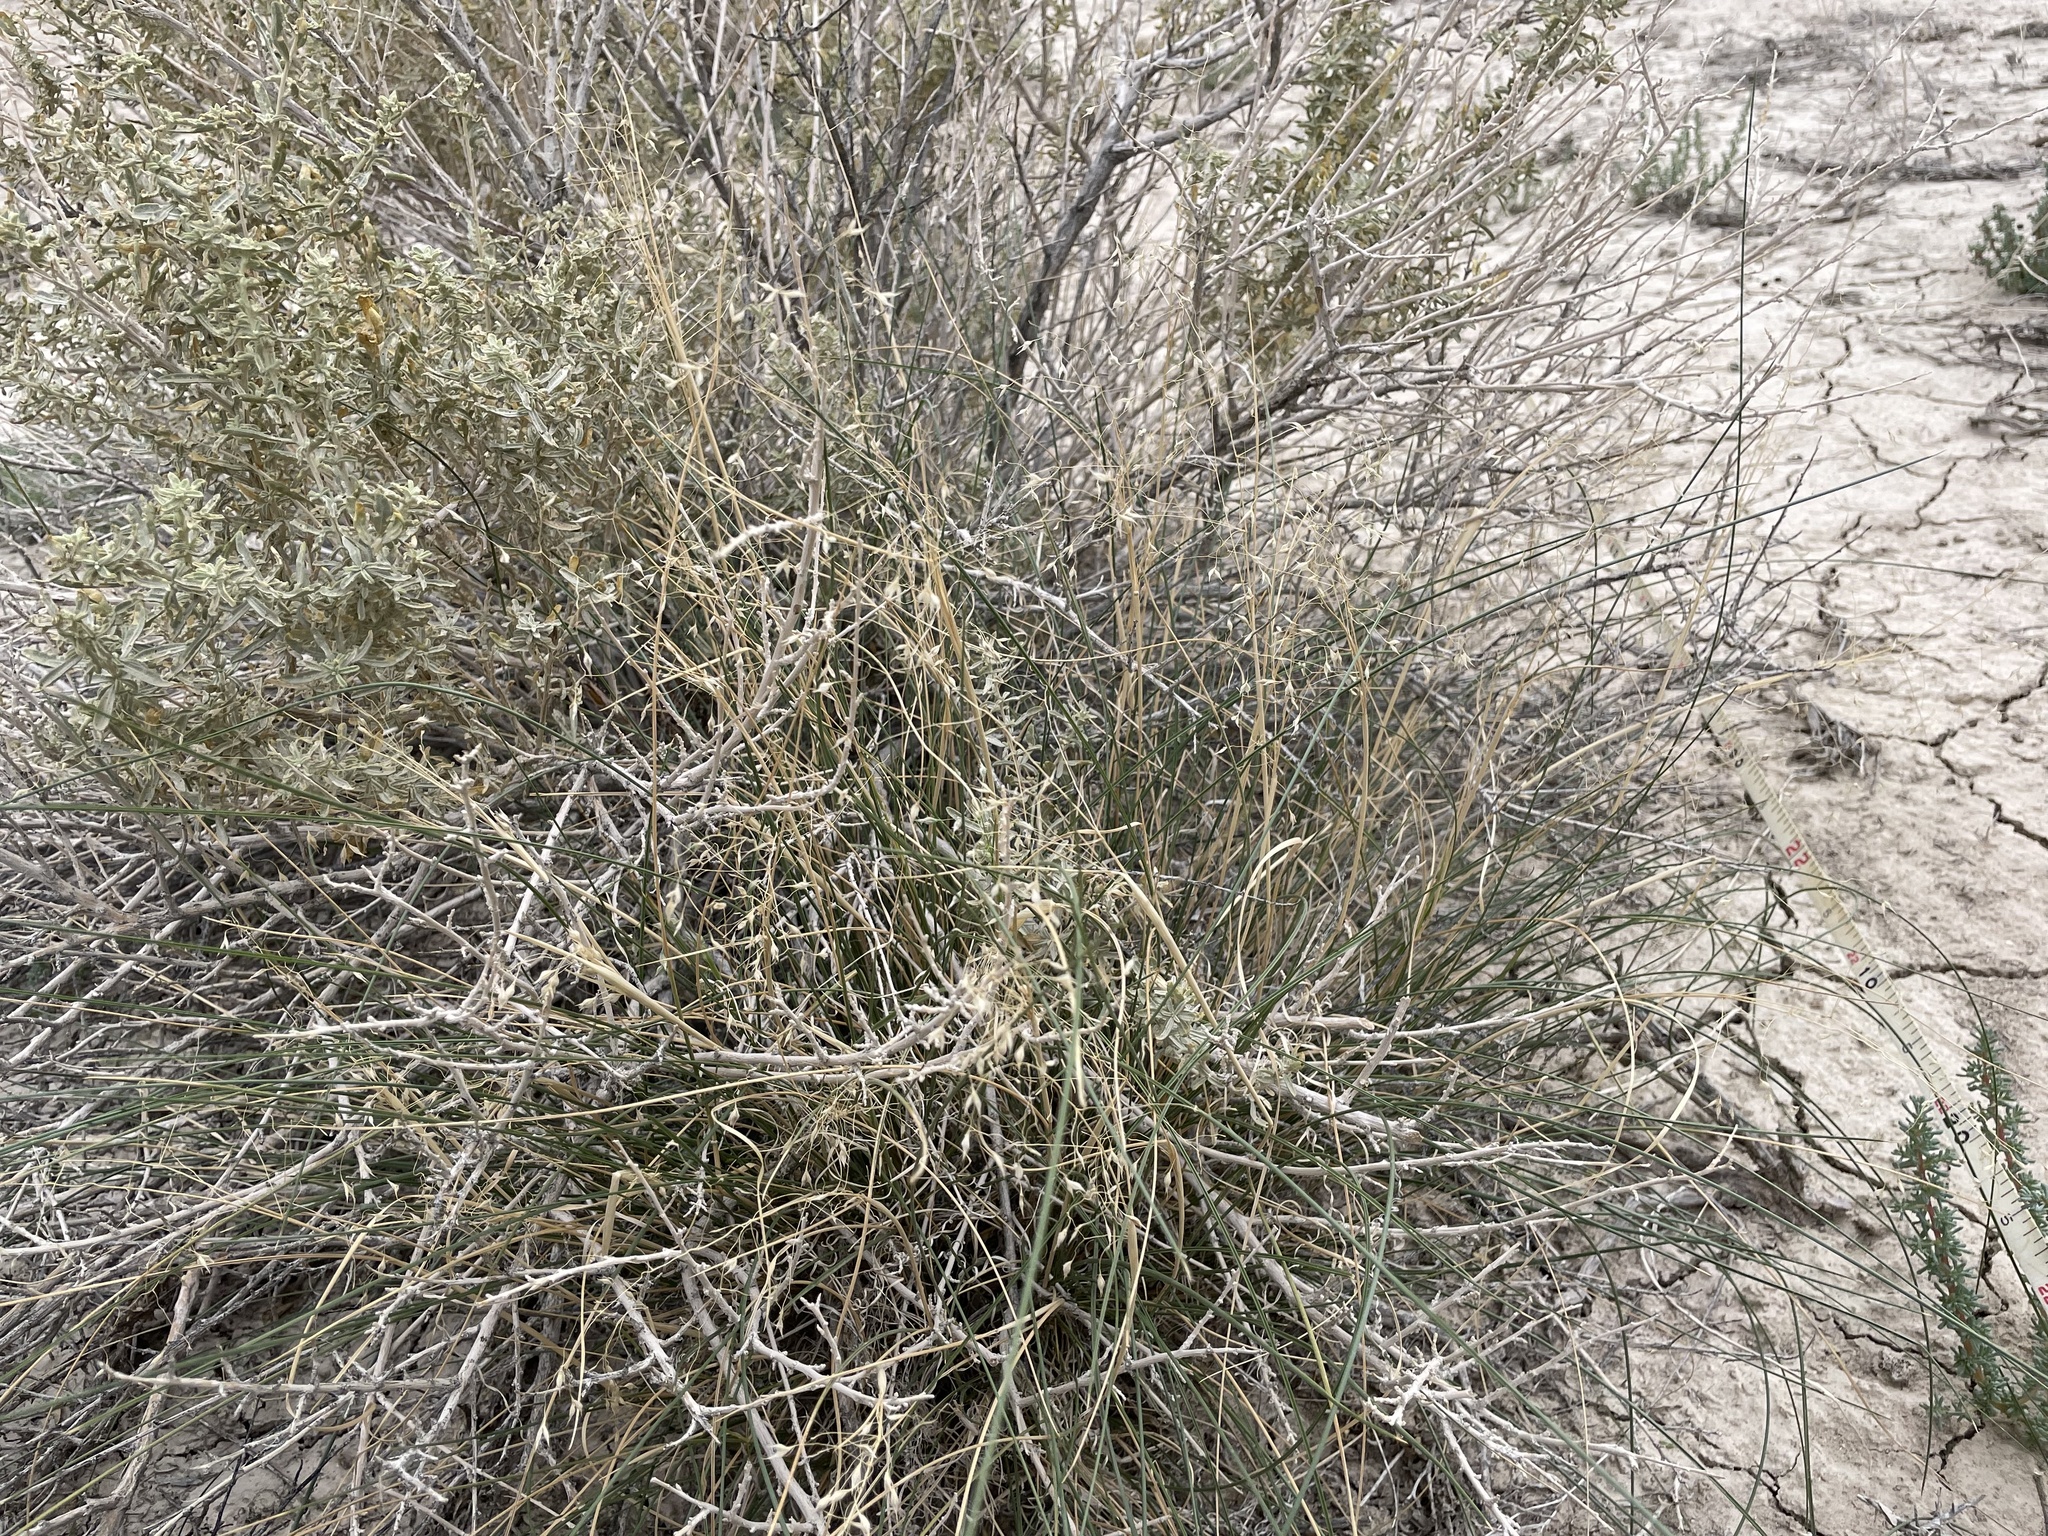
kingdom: Plantae
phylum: Tracheophyta
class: Liliopsida
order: Poales
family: Poaceae
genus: Eriocoma
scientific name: Eriocoma hymenoides
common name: Indian mountain ricegrass
